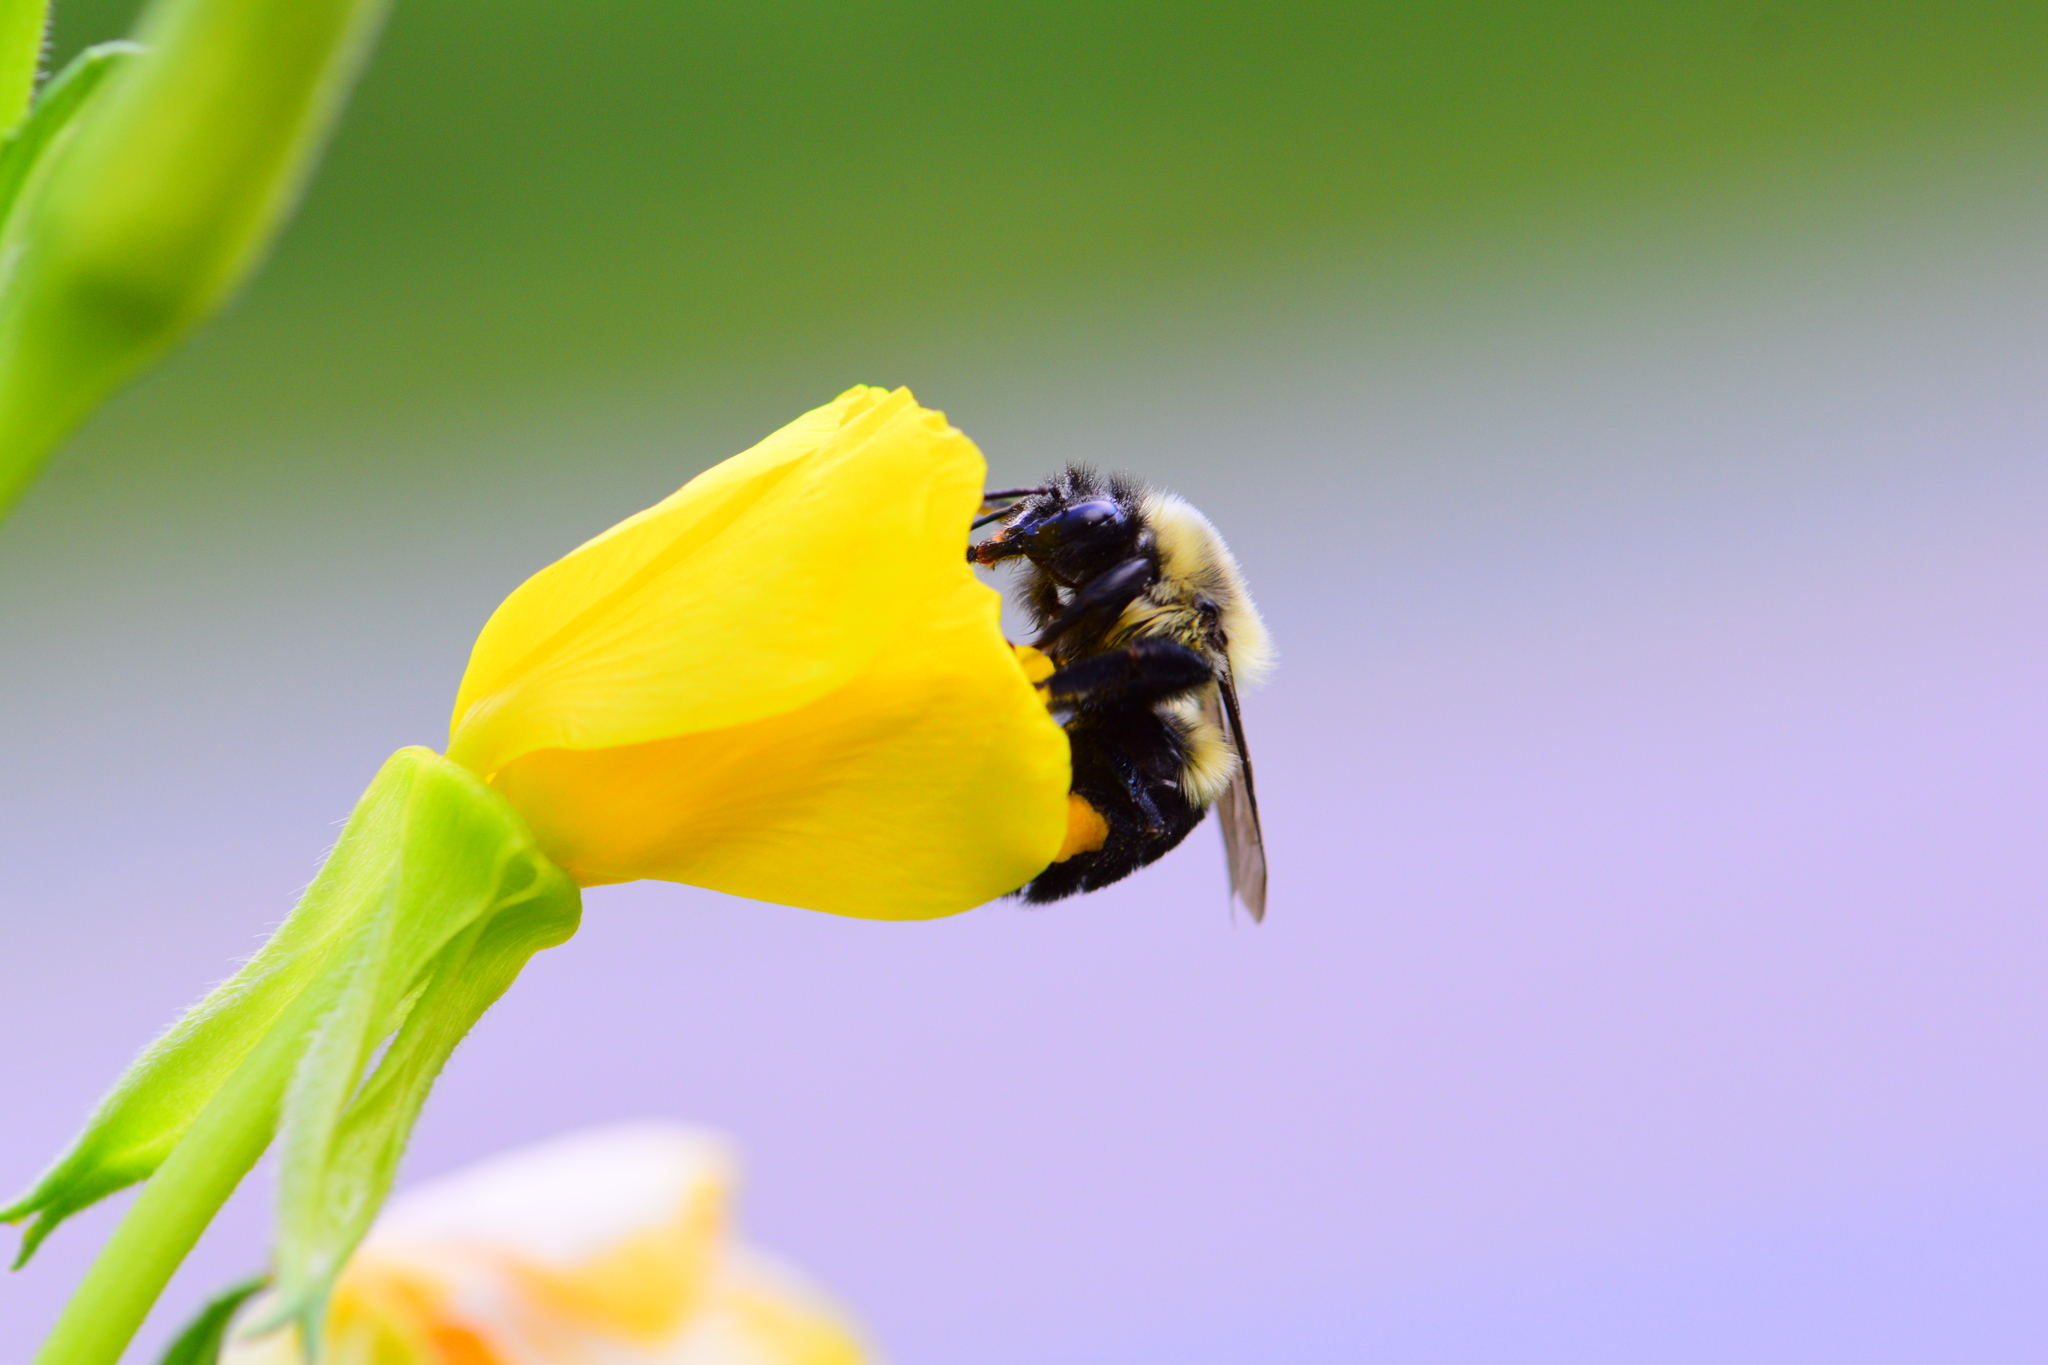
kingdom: Animalia
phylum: Arthropoda
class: Insecta
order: Hymenoptera
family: Apidae
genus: Bombus
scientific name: Bombus impatiens
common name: Common eastern bumble bee
